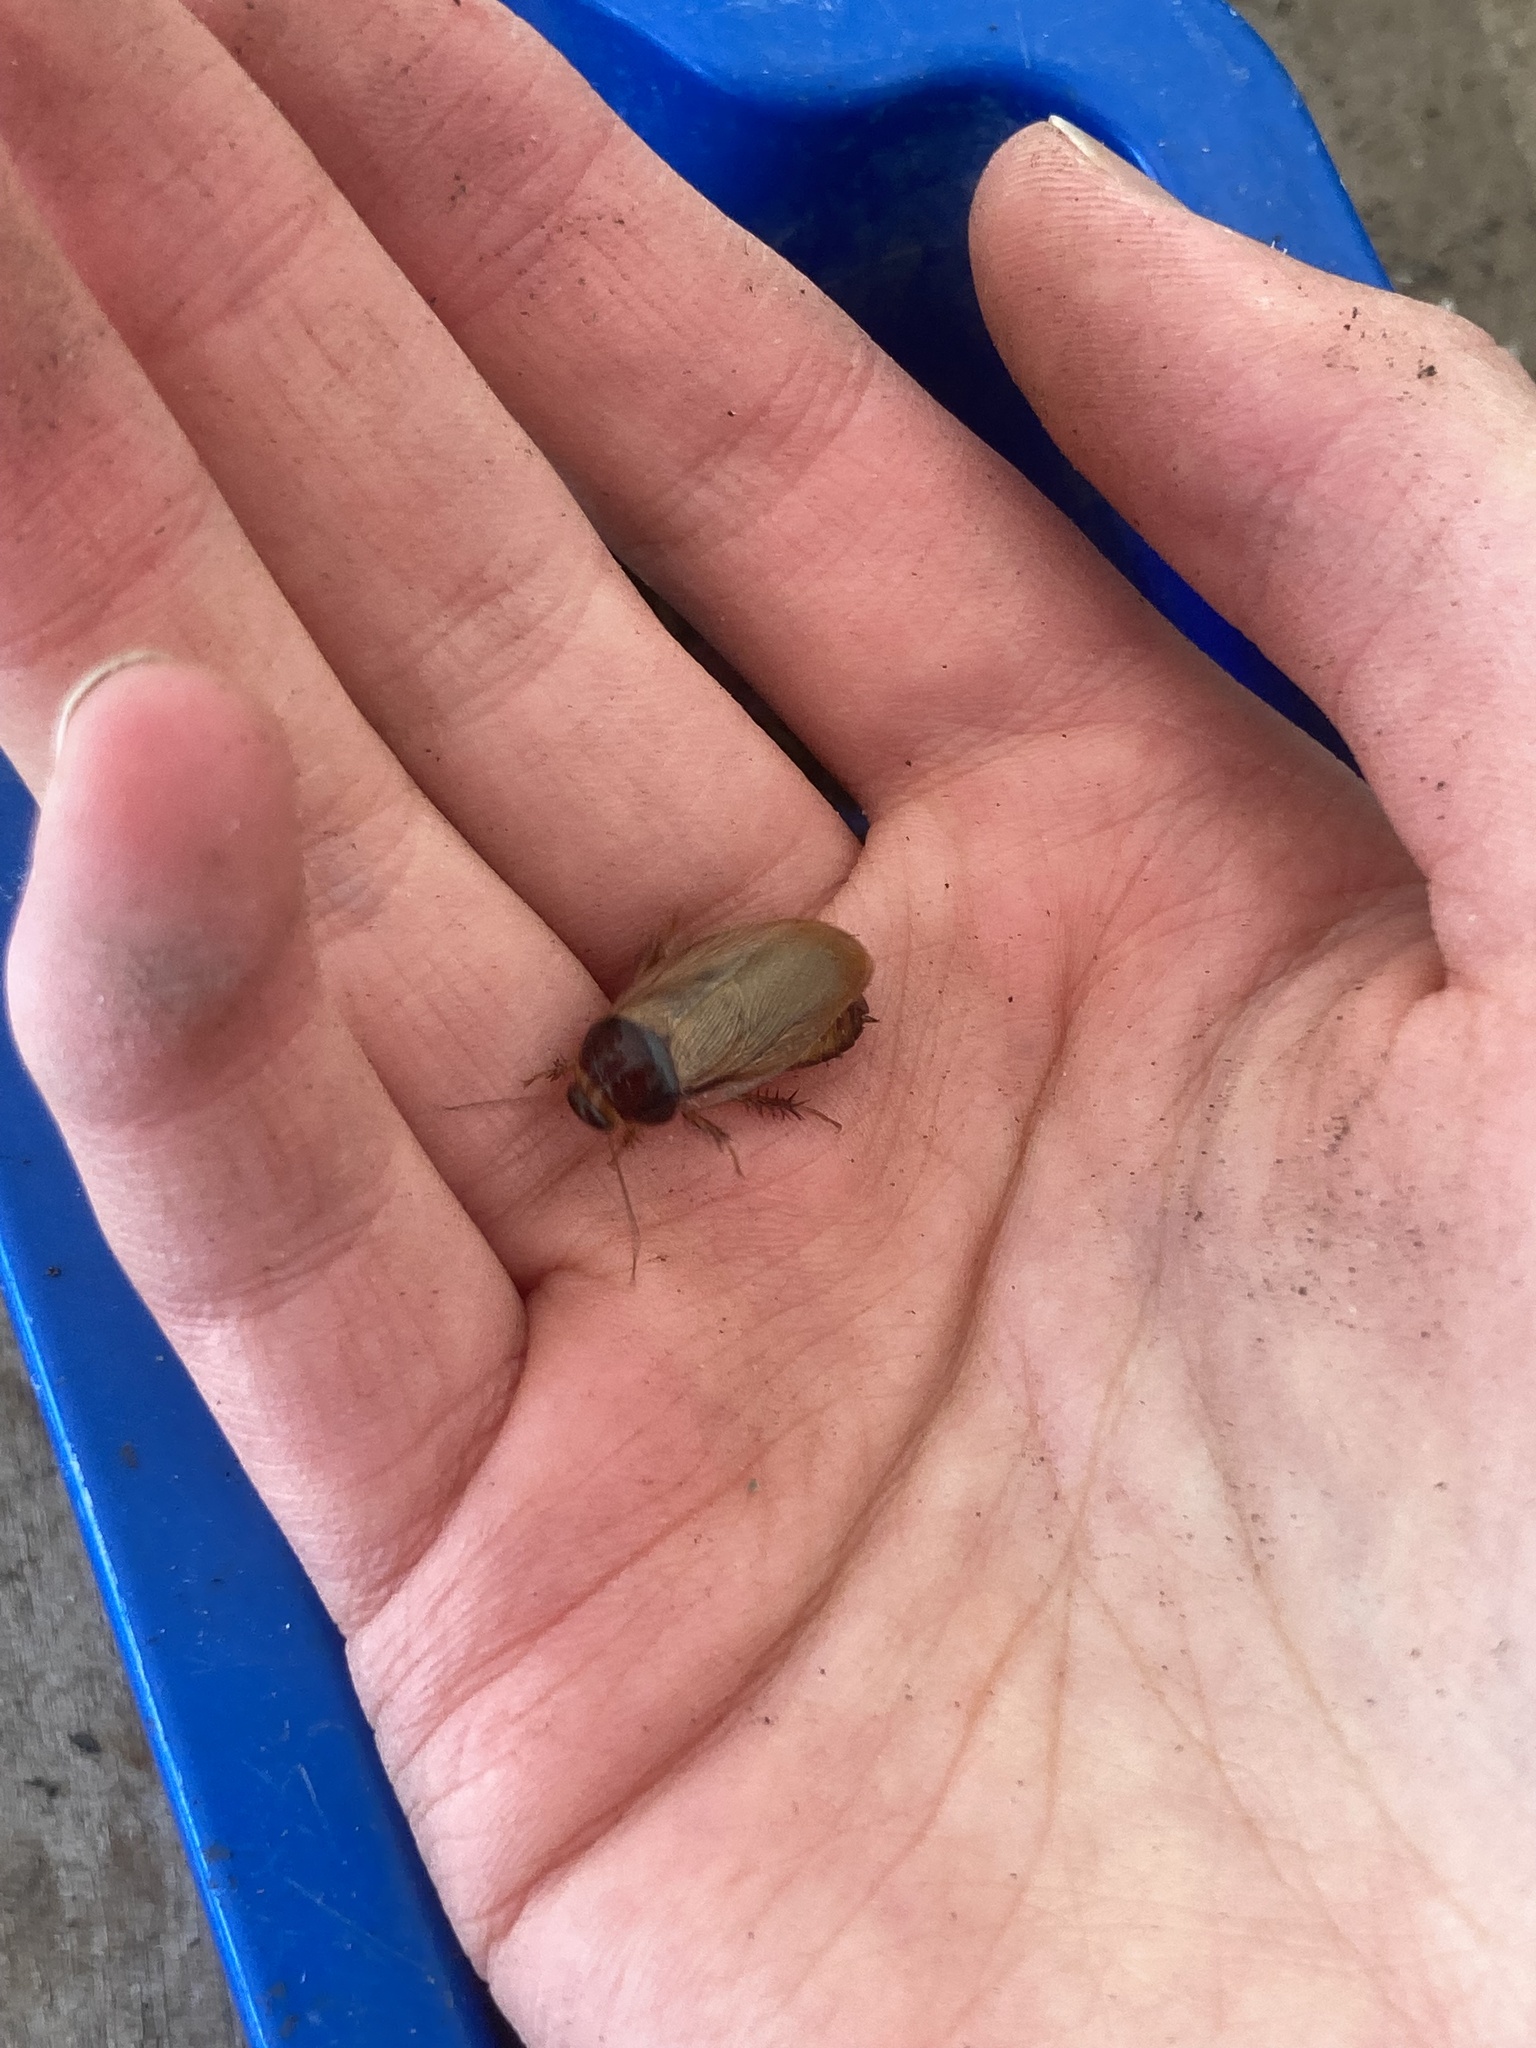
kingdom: Animalia
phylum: Arthropoda
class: Insecta
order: Blattodea
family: Blaberidae
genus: Pycnoscelus
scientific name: Pycnoscelus surinamensis
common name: Surinam cockroach
